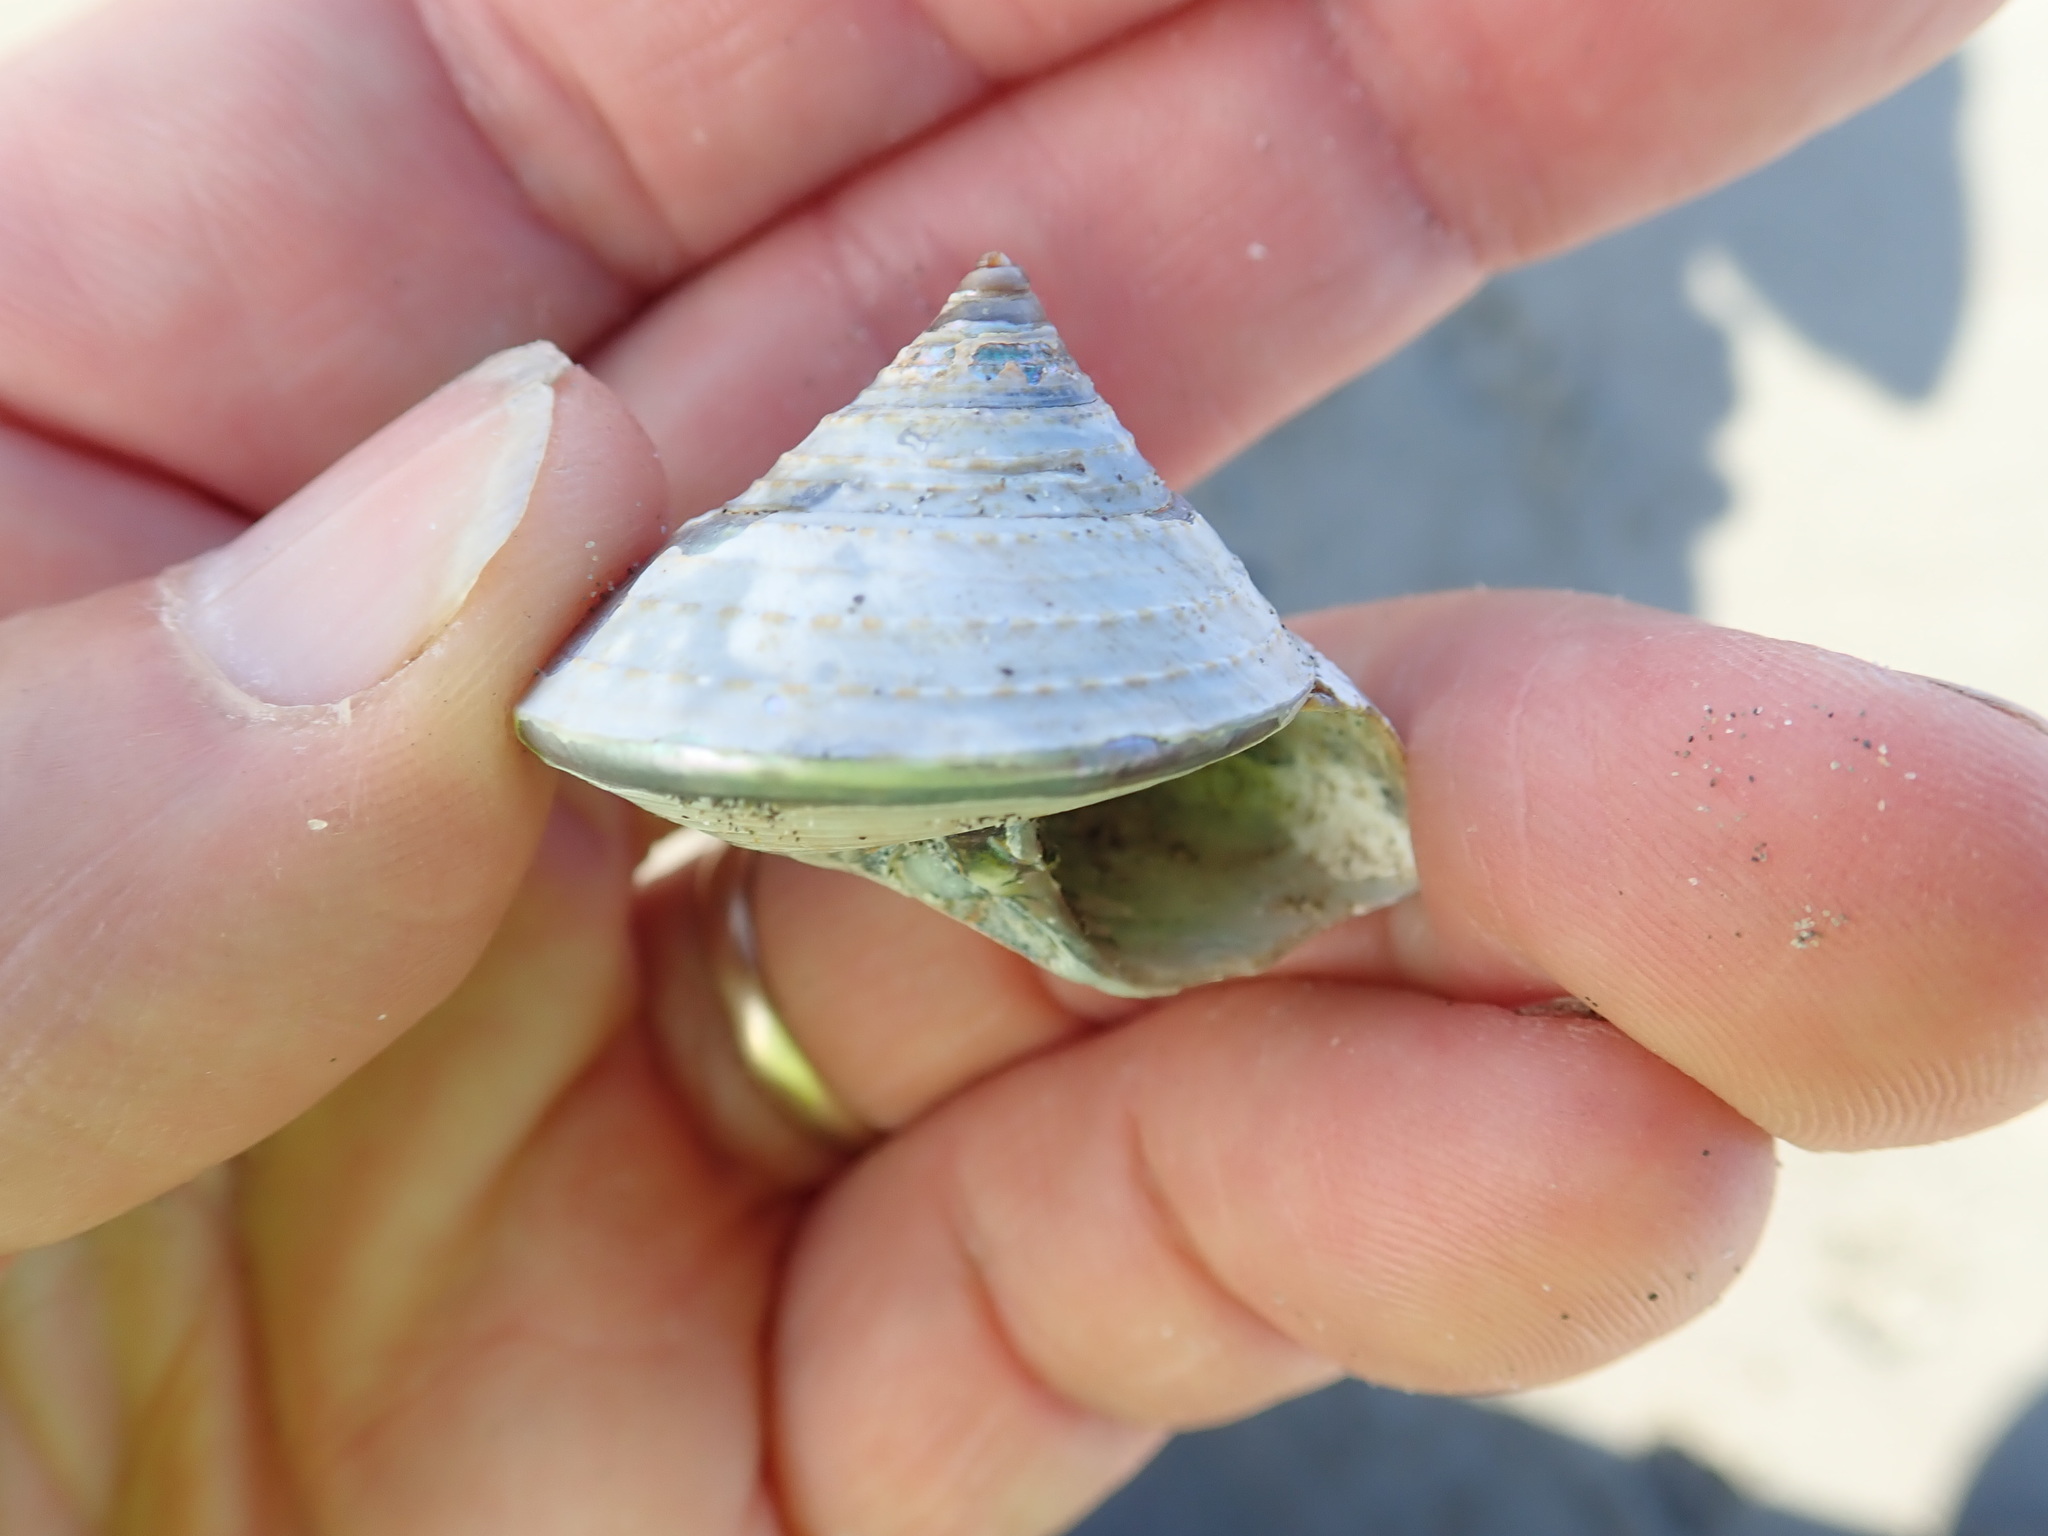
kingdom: Animalia
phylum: Mollusca
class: Gastropoda
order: Trochida
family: Calliostomatidae
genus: Maurea
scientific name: Maurea selecta
